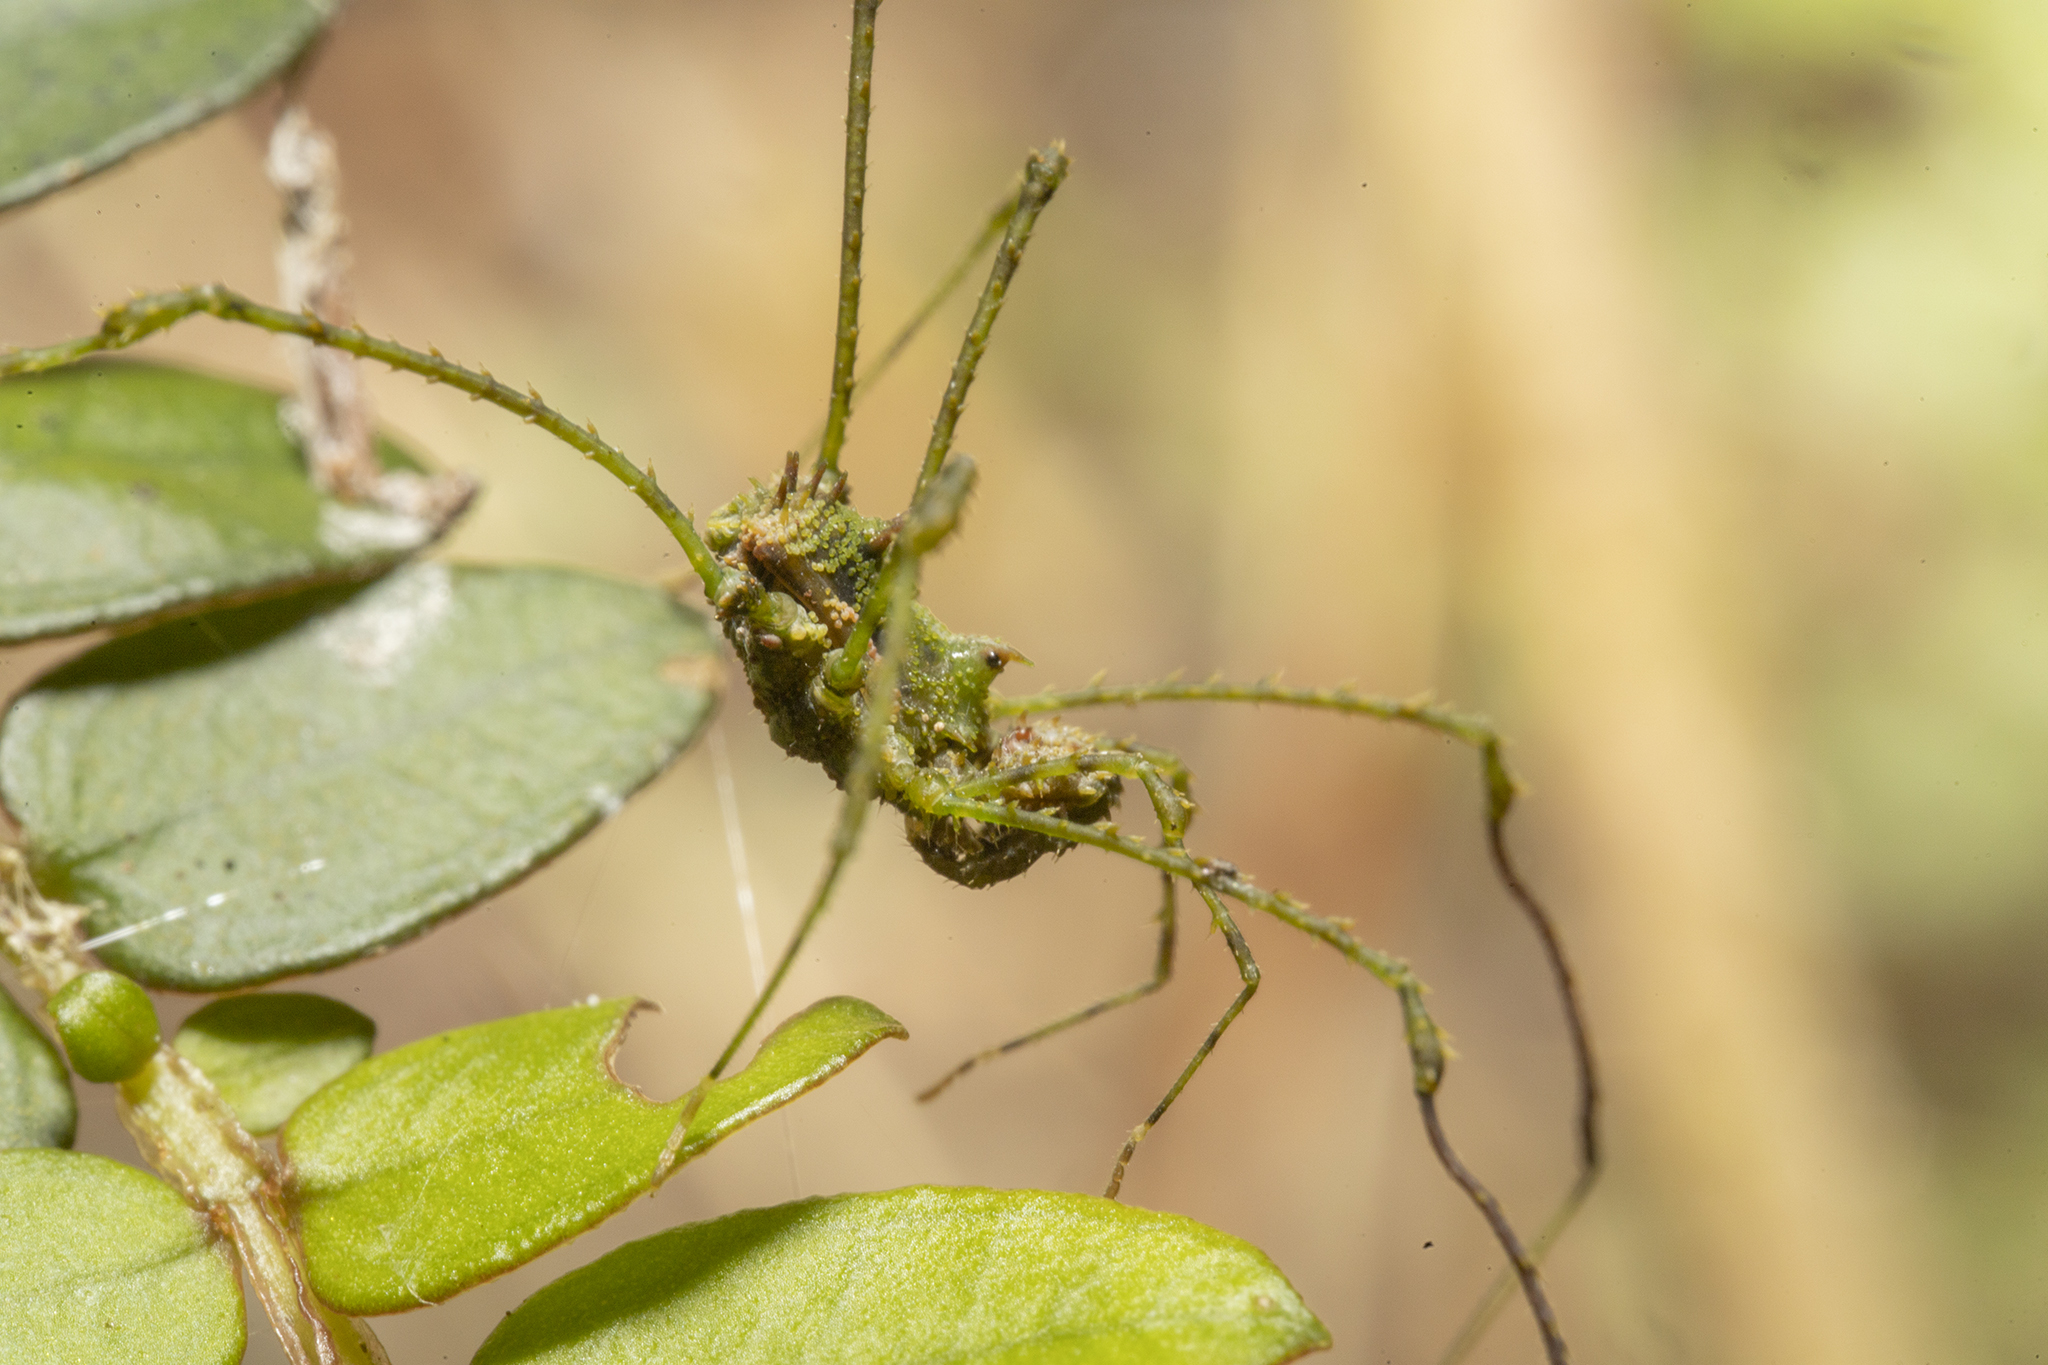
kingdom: Animalia
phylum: Arthropoda
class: Arachnida
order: Opiliones
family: Triaenonychidae
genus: Algidia
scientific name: Algidia viridata
